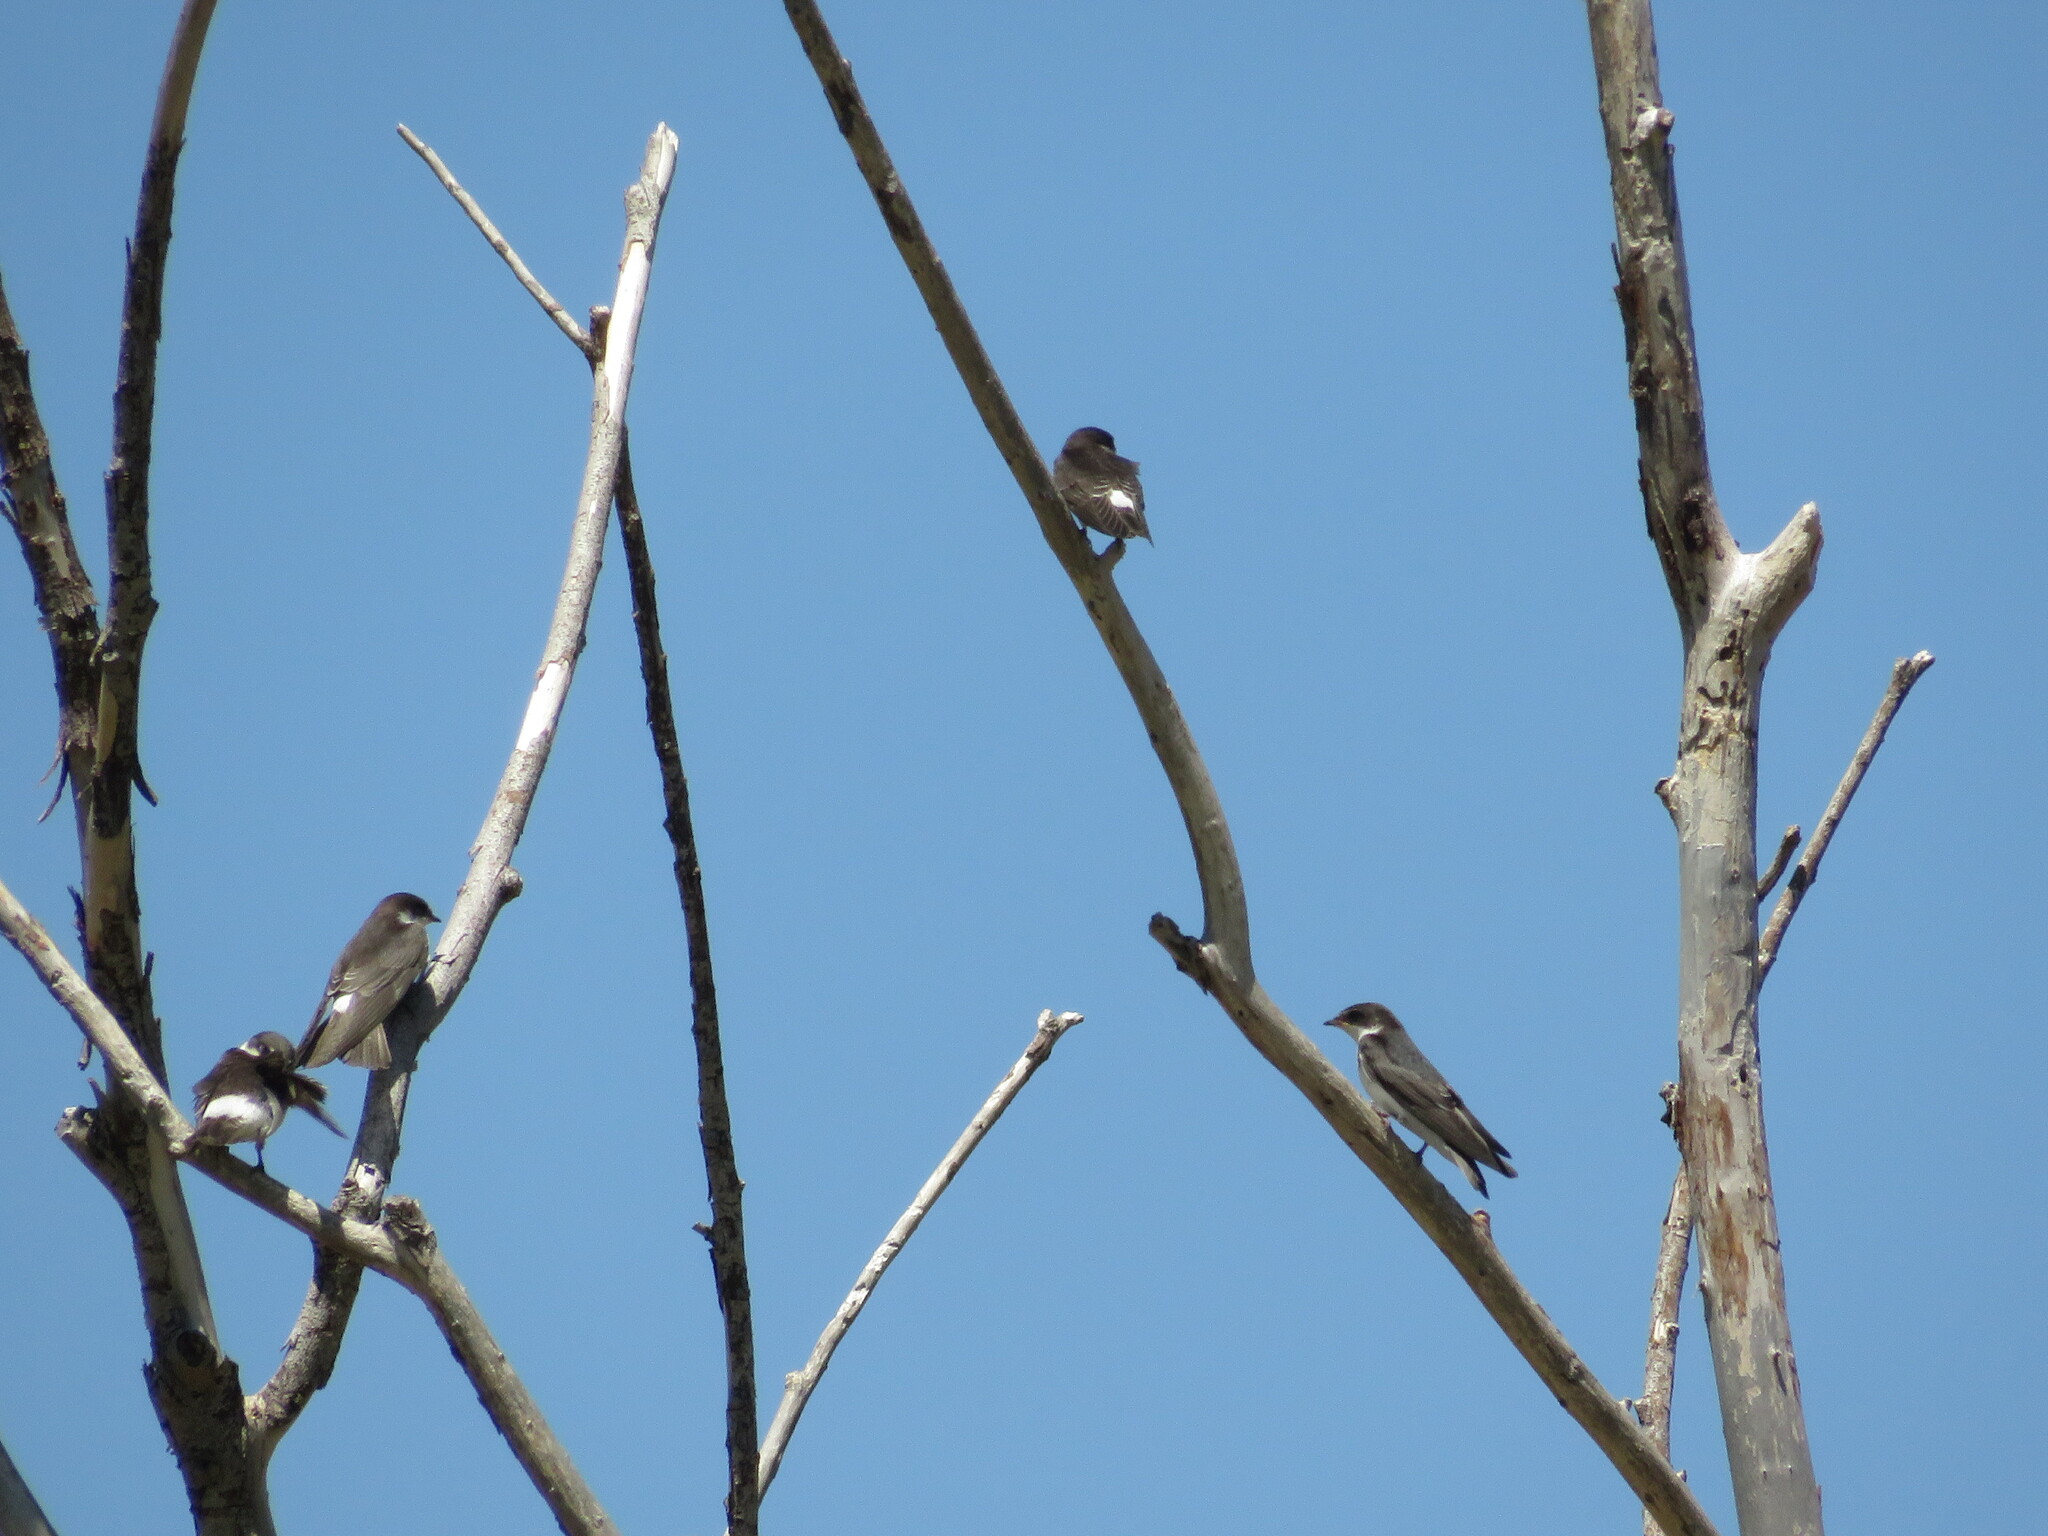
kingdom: Animalia
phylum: Chordata
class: Aves
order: Passeriformes
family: Hirundinidae
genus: Tachycineta
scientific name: Tachycineta leucorrhoa
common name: White-rumped swallow
